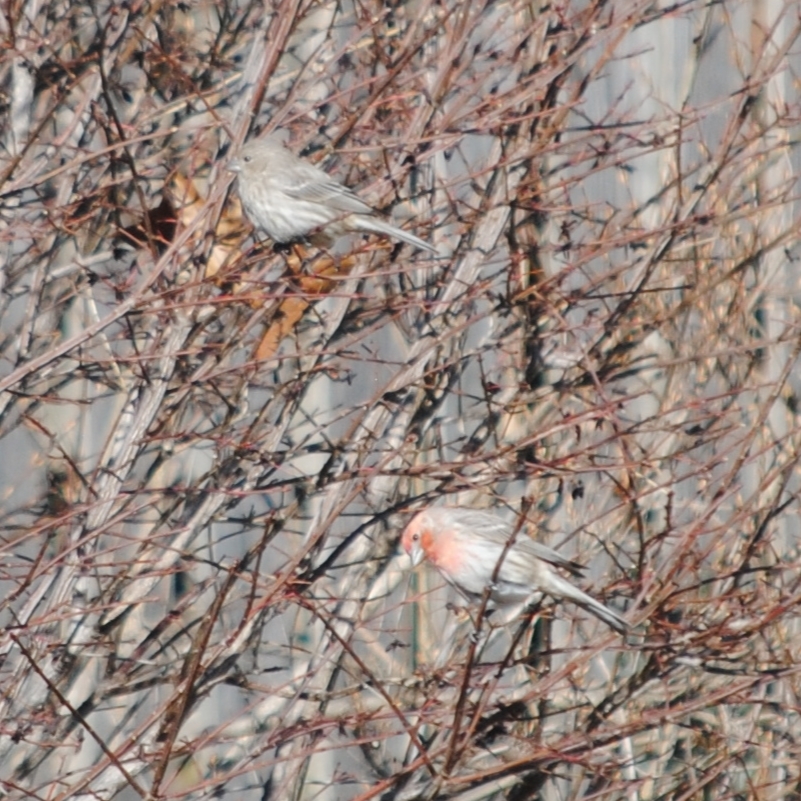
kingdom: Animalia
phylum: Chordata
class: Aves
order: Passeriformes
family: Fringillidae
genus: Haemorhous
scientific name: Haemorhous mexicanus
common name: House finch
